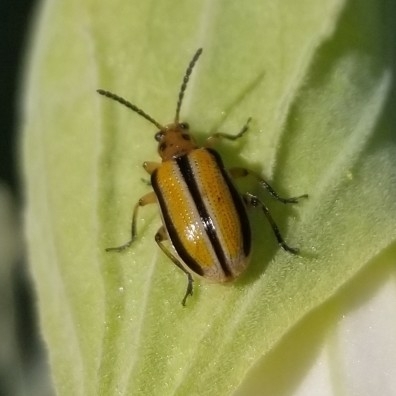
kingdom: Animalia
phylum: Arthropoda
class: Insecta
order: Coleoptera
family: Chrysomelidae
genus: Lema
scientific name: Lema daturaphila
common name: Leaf beetle
